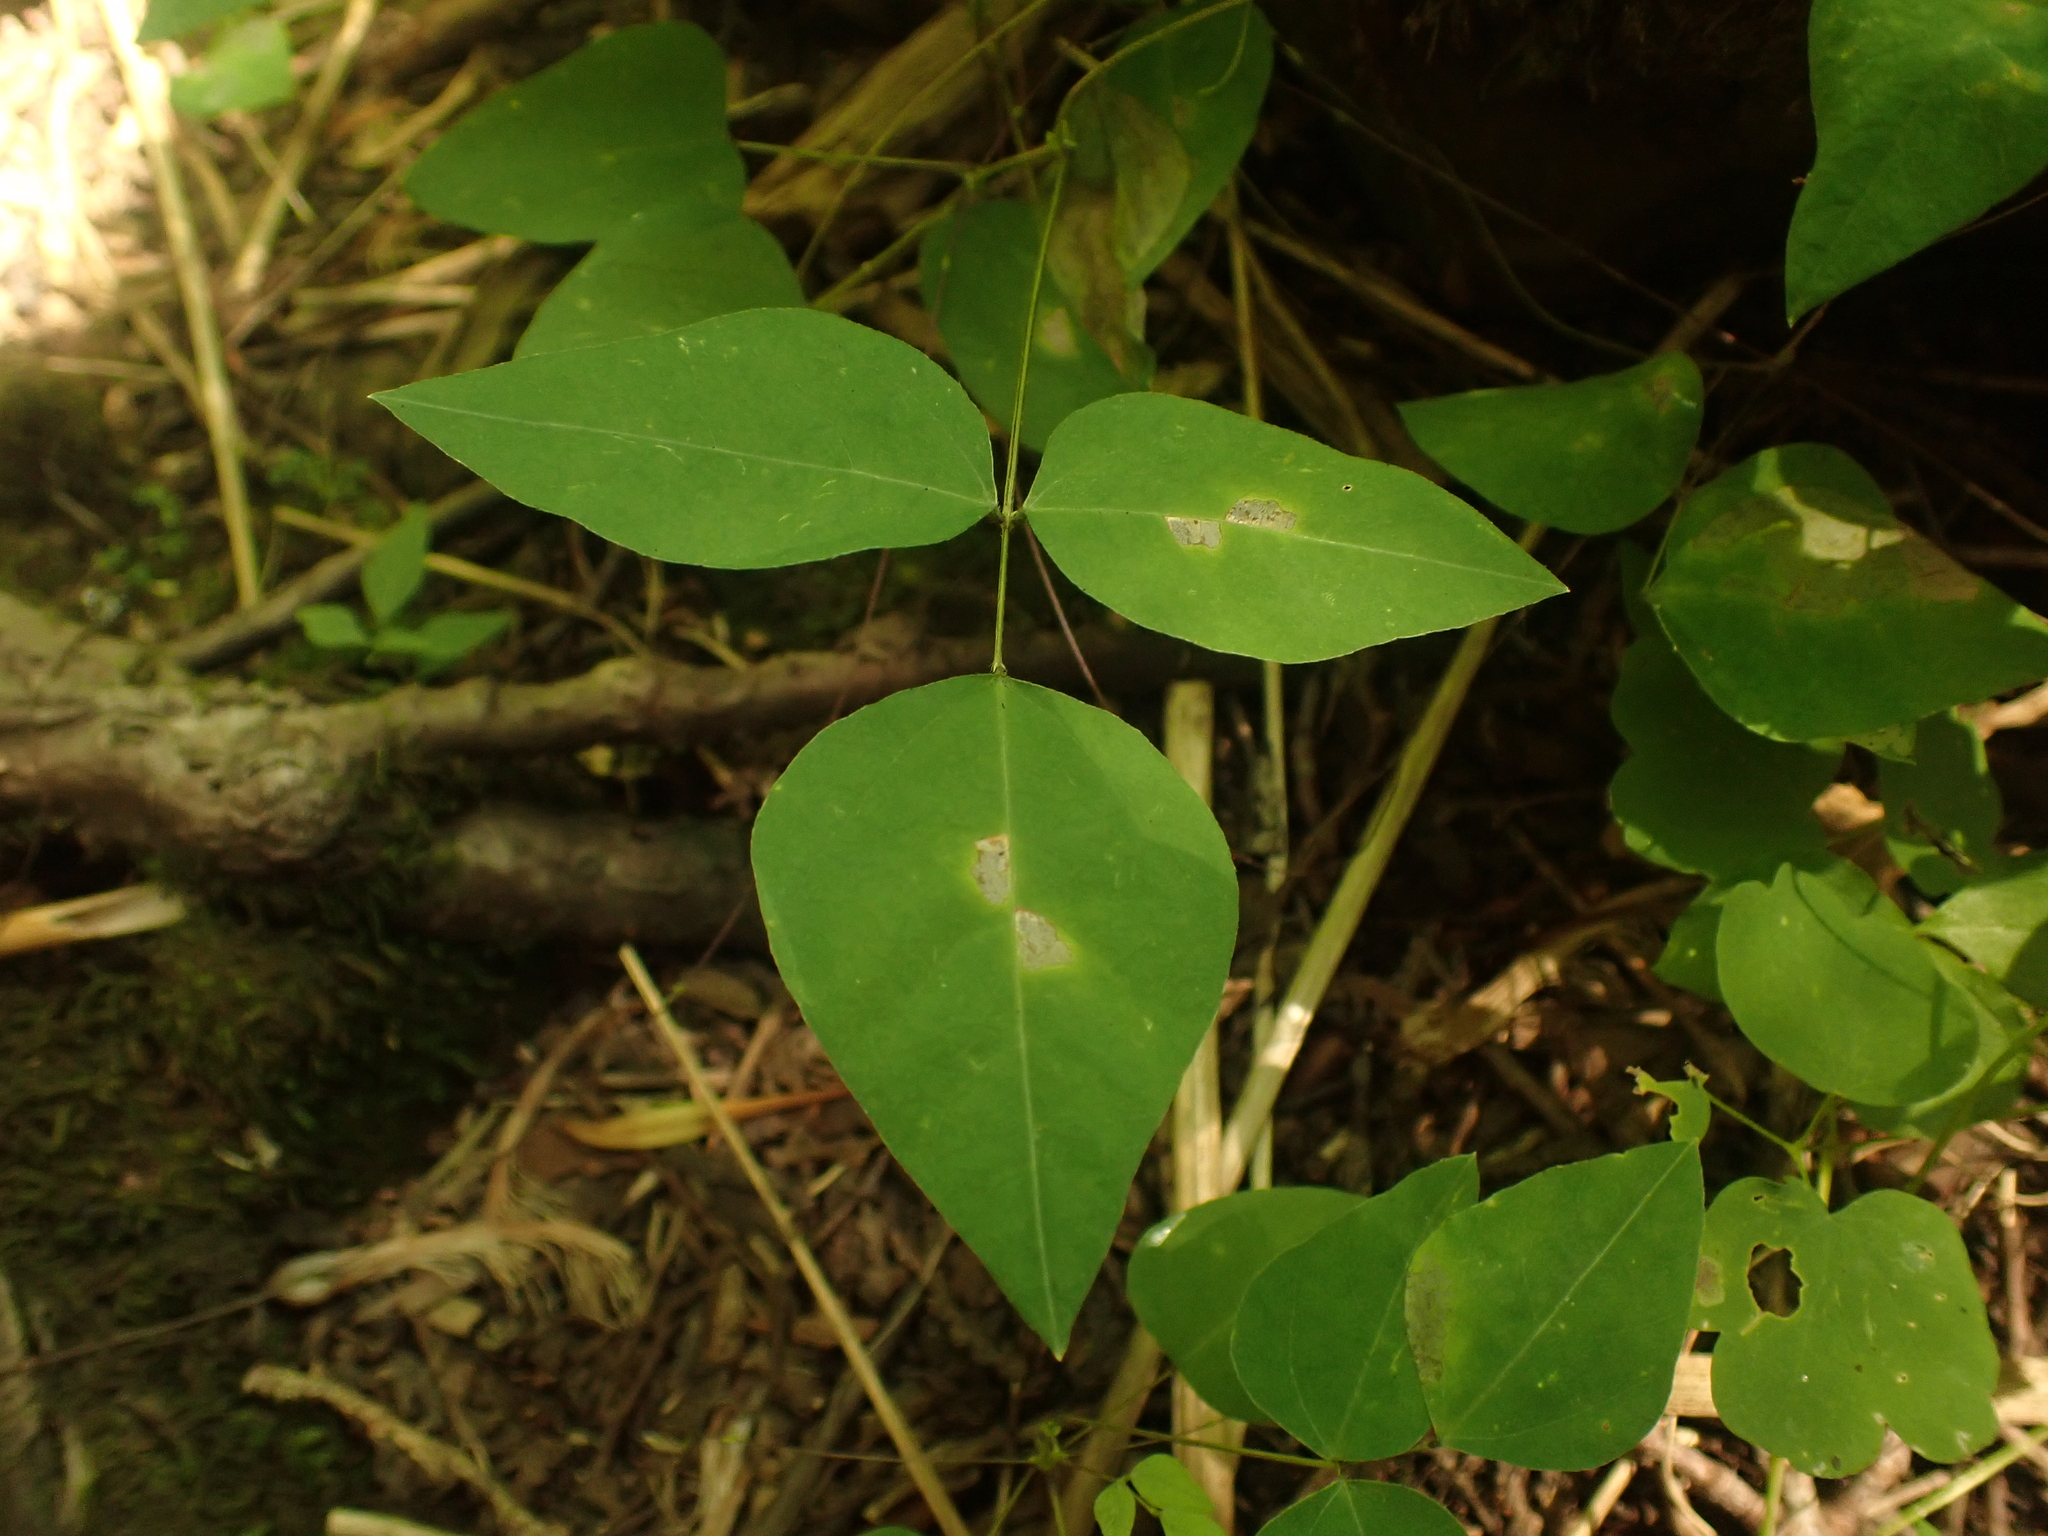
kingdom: Plantae
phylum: Tracheophyta
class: Magnoliopsida
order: Fabales
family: Fabaceae
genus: Amphicarpaea
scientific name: Amphicarpaea bracteata
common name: American hog peanut
